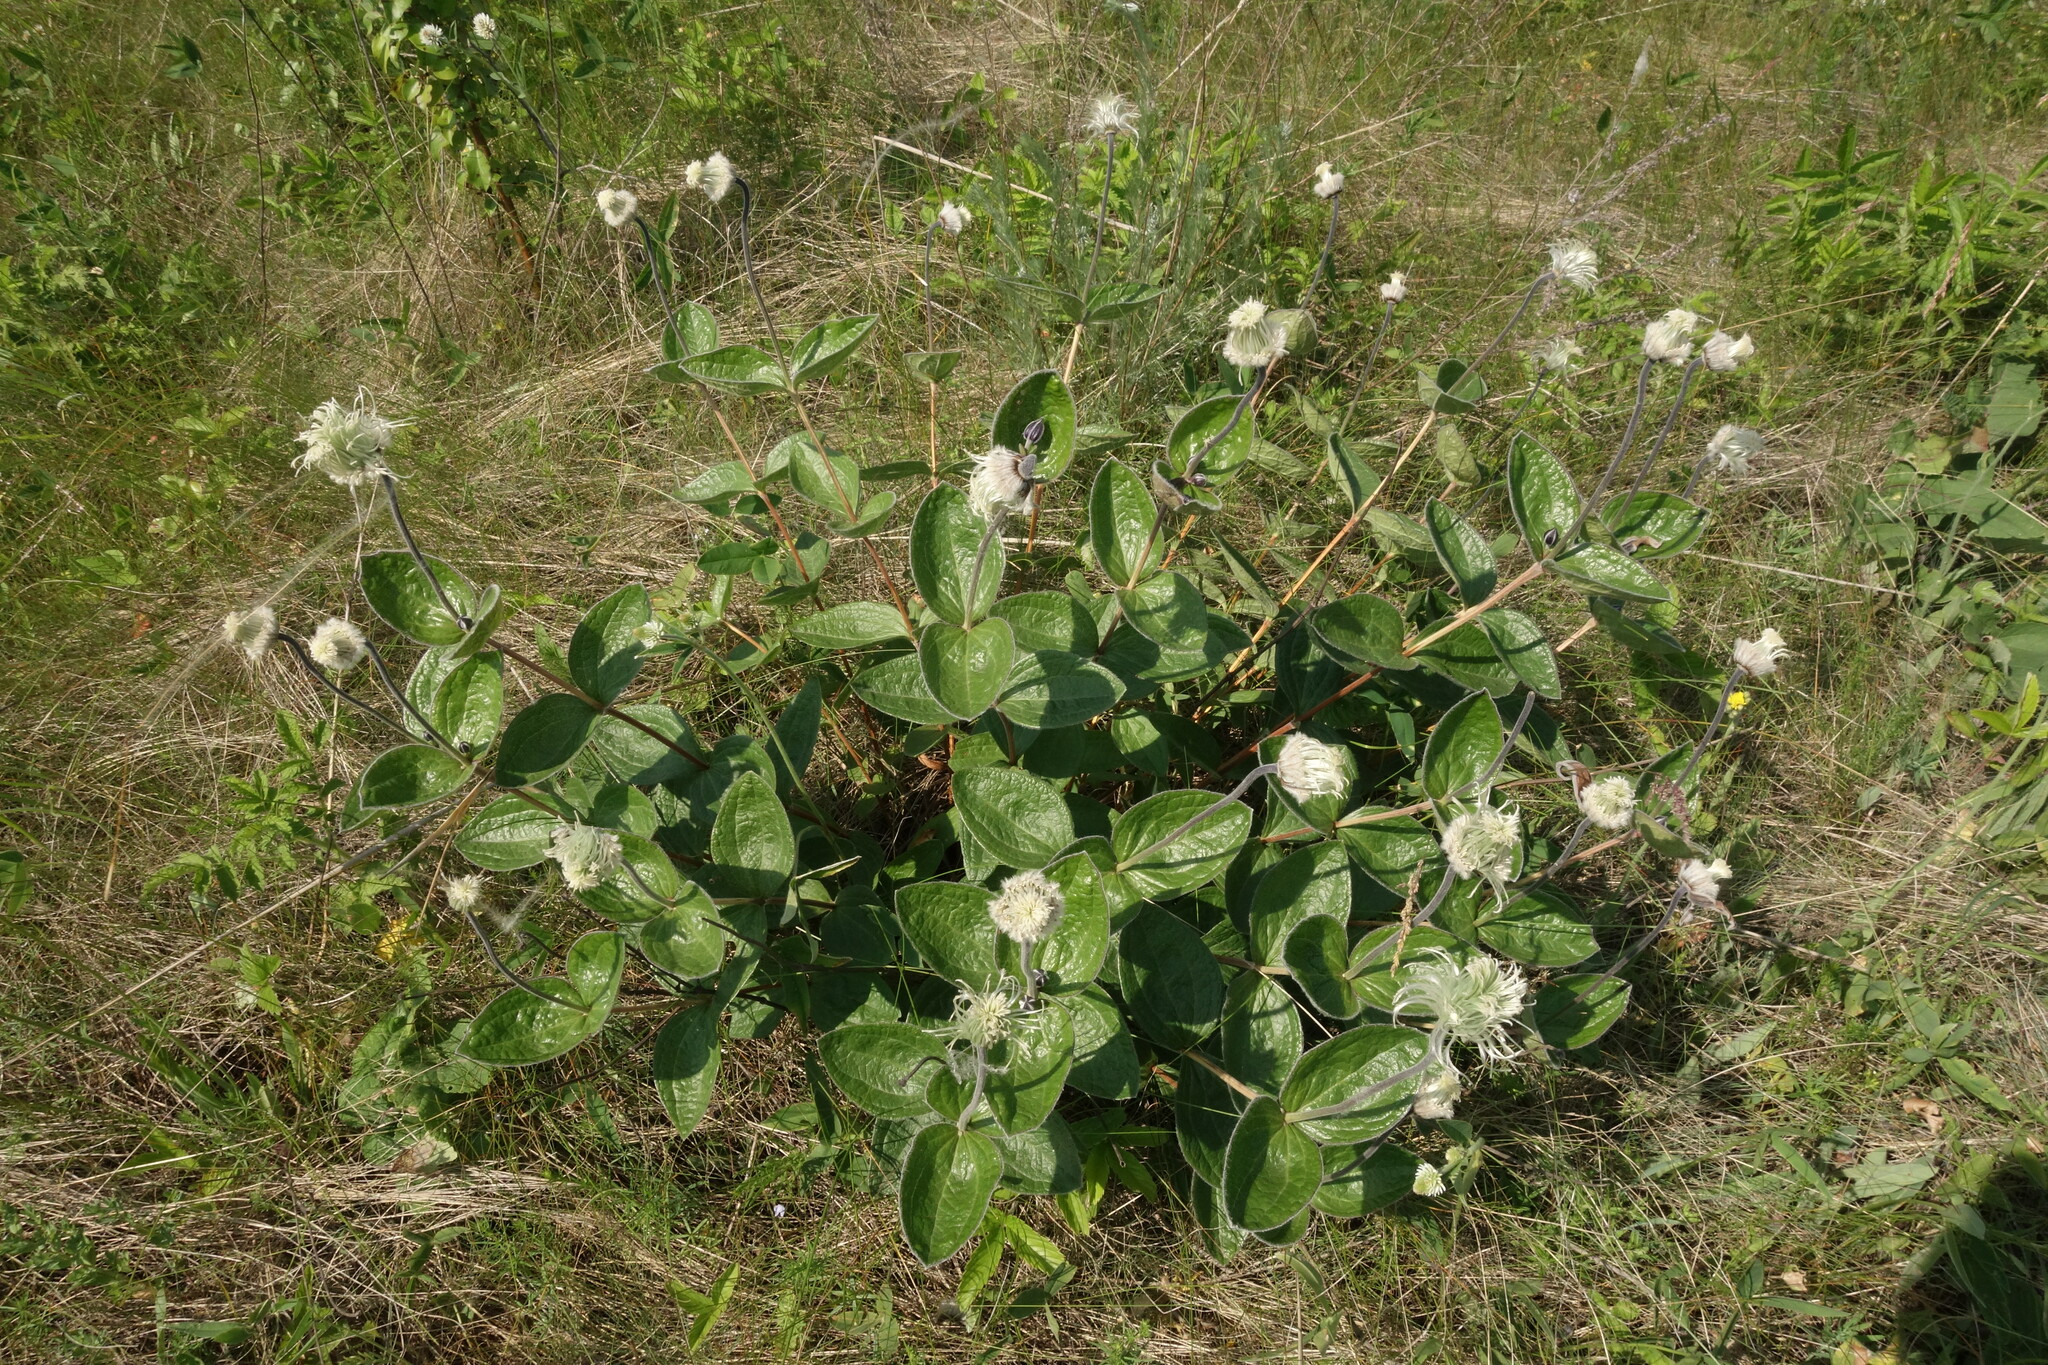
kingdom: Plantae
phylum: Tracheophyta
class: Magnoliopsida
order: Ranunculales
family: Ranunculaceae
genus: Clematis
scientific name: Clematis integrifolia
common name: Solitary clematis
